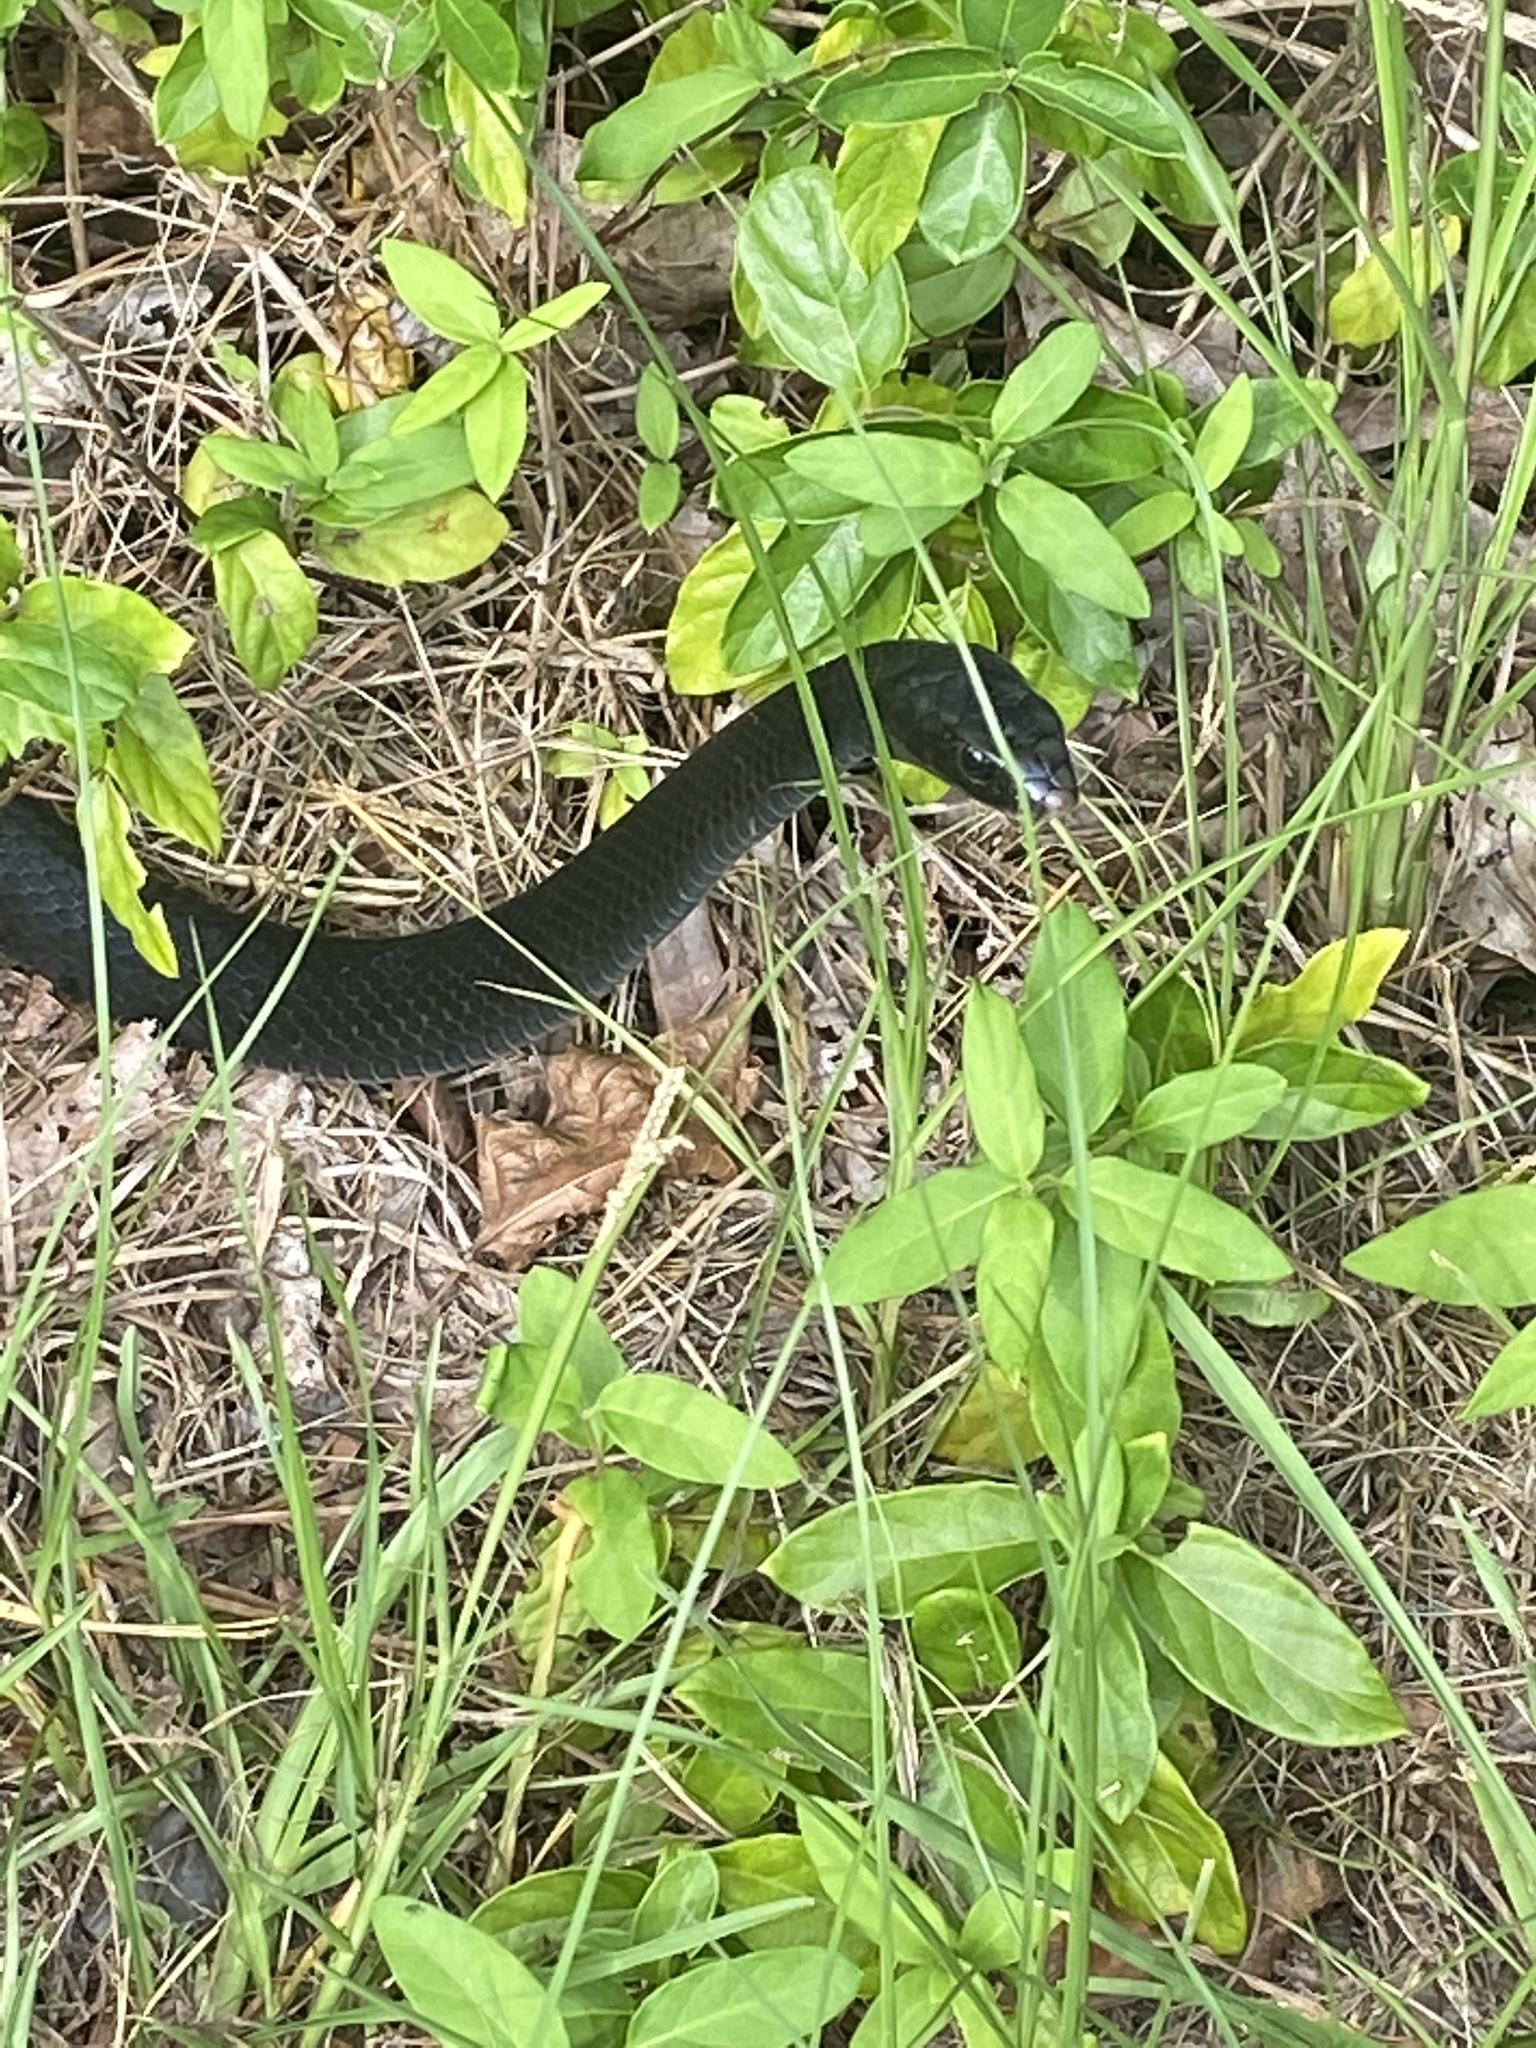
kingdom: Animalia
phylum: Chordata
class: Squamata
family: Colubridae
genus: Coluber
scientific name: Coluber constrictor
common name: Eastern racer
